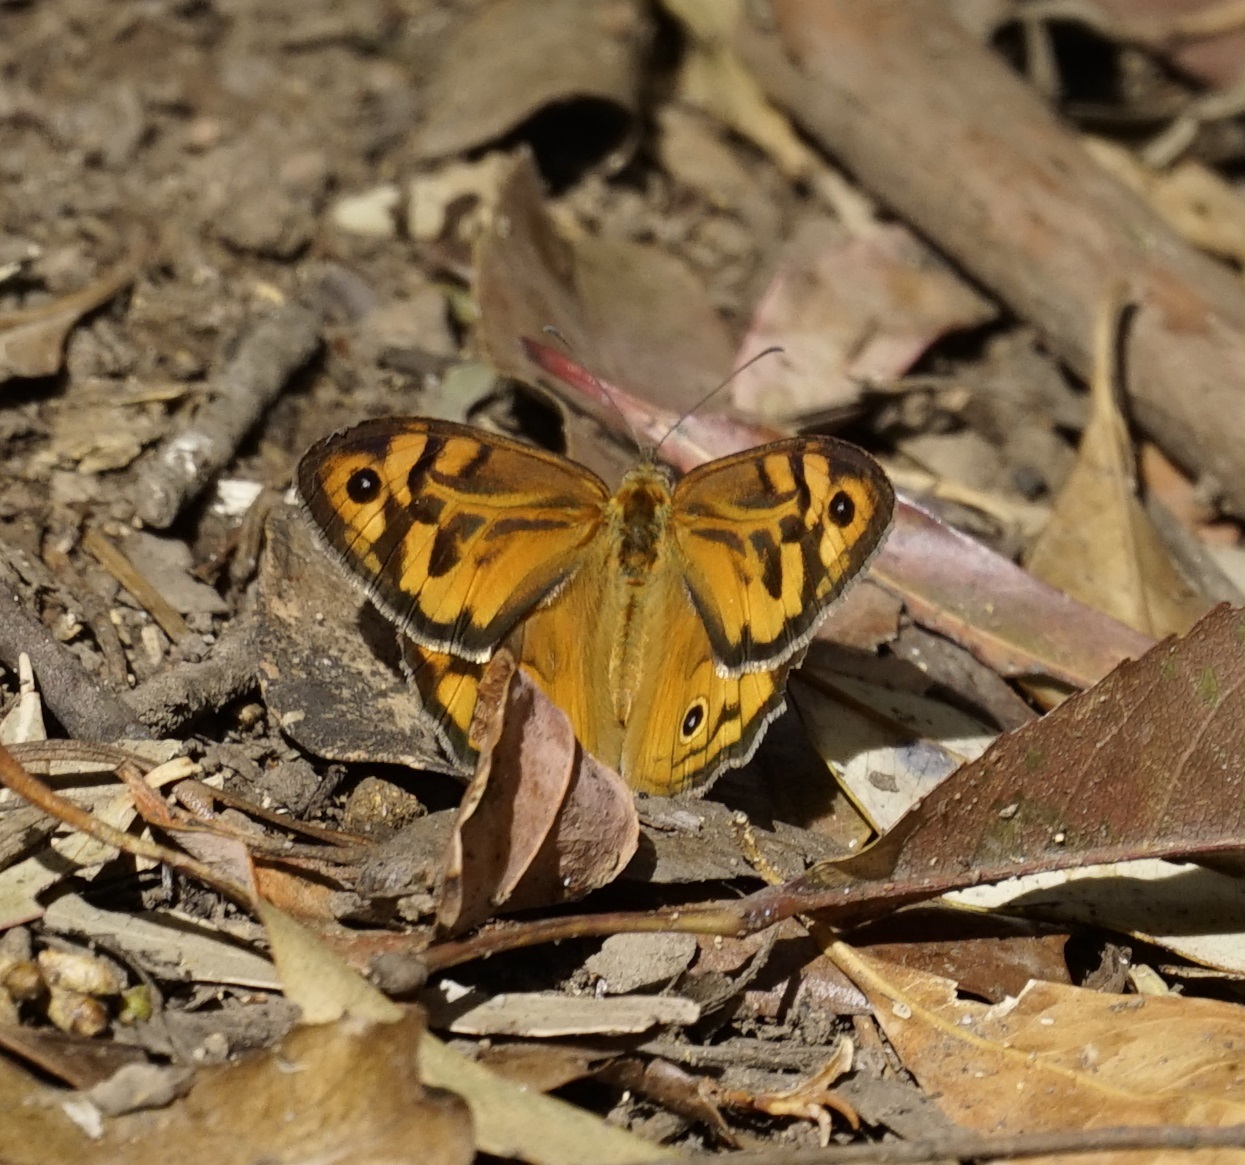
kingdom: Animalia
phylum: Arthropoda
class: Insecta
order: Lepidoptera
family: Nymphalidae
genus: Heteronympha
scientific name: Heteronympha merope
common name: Common brown
